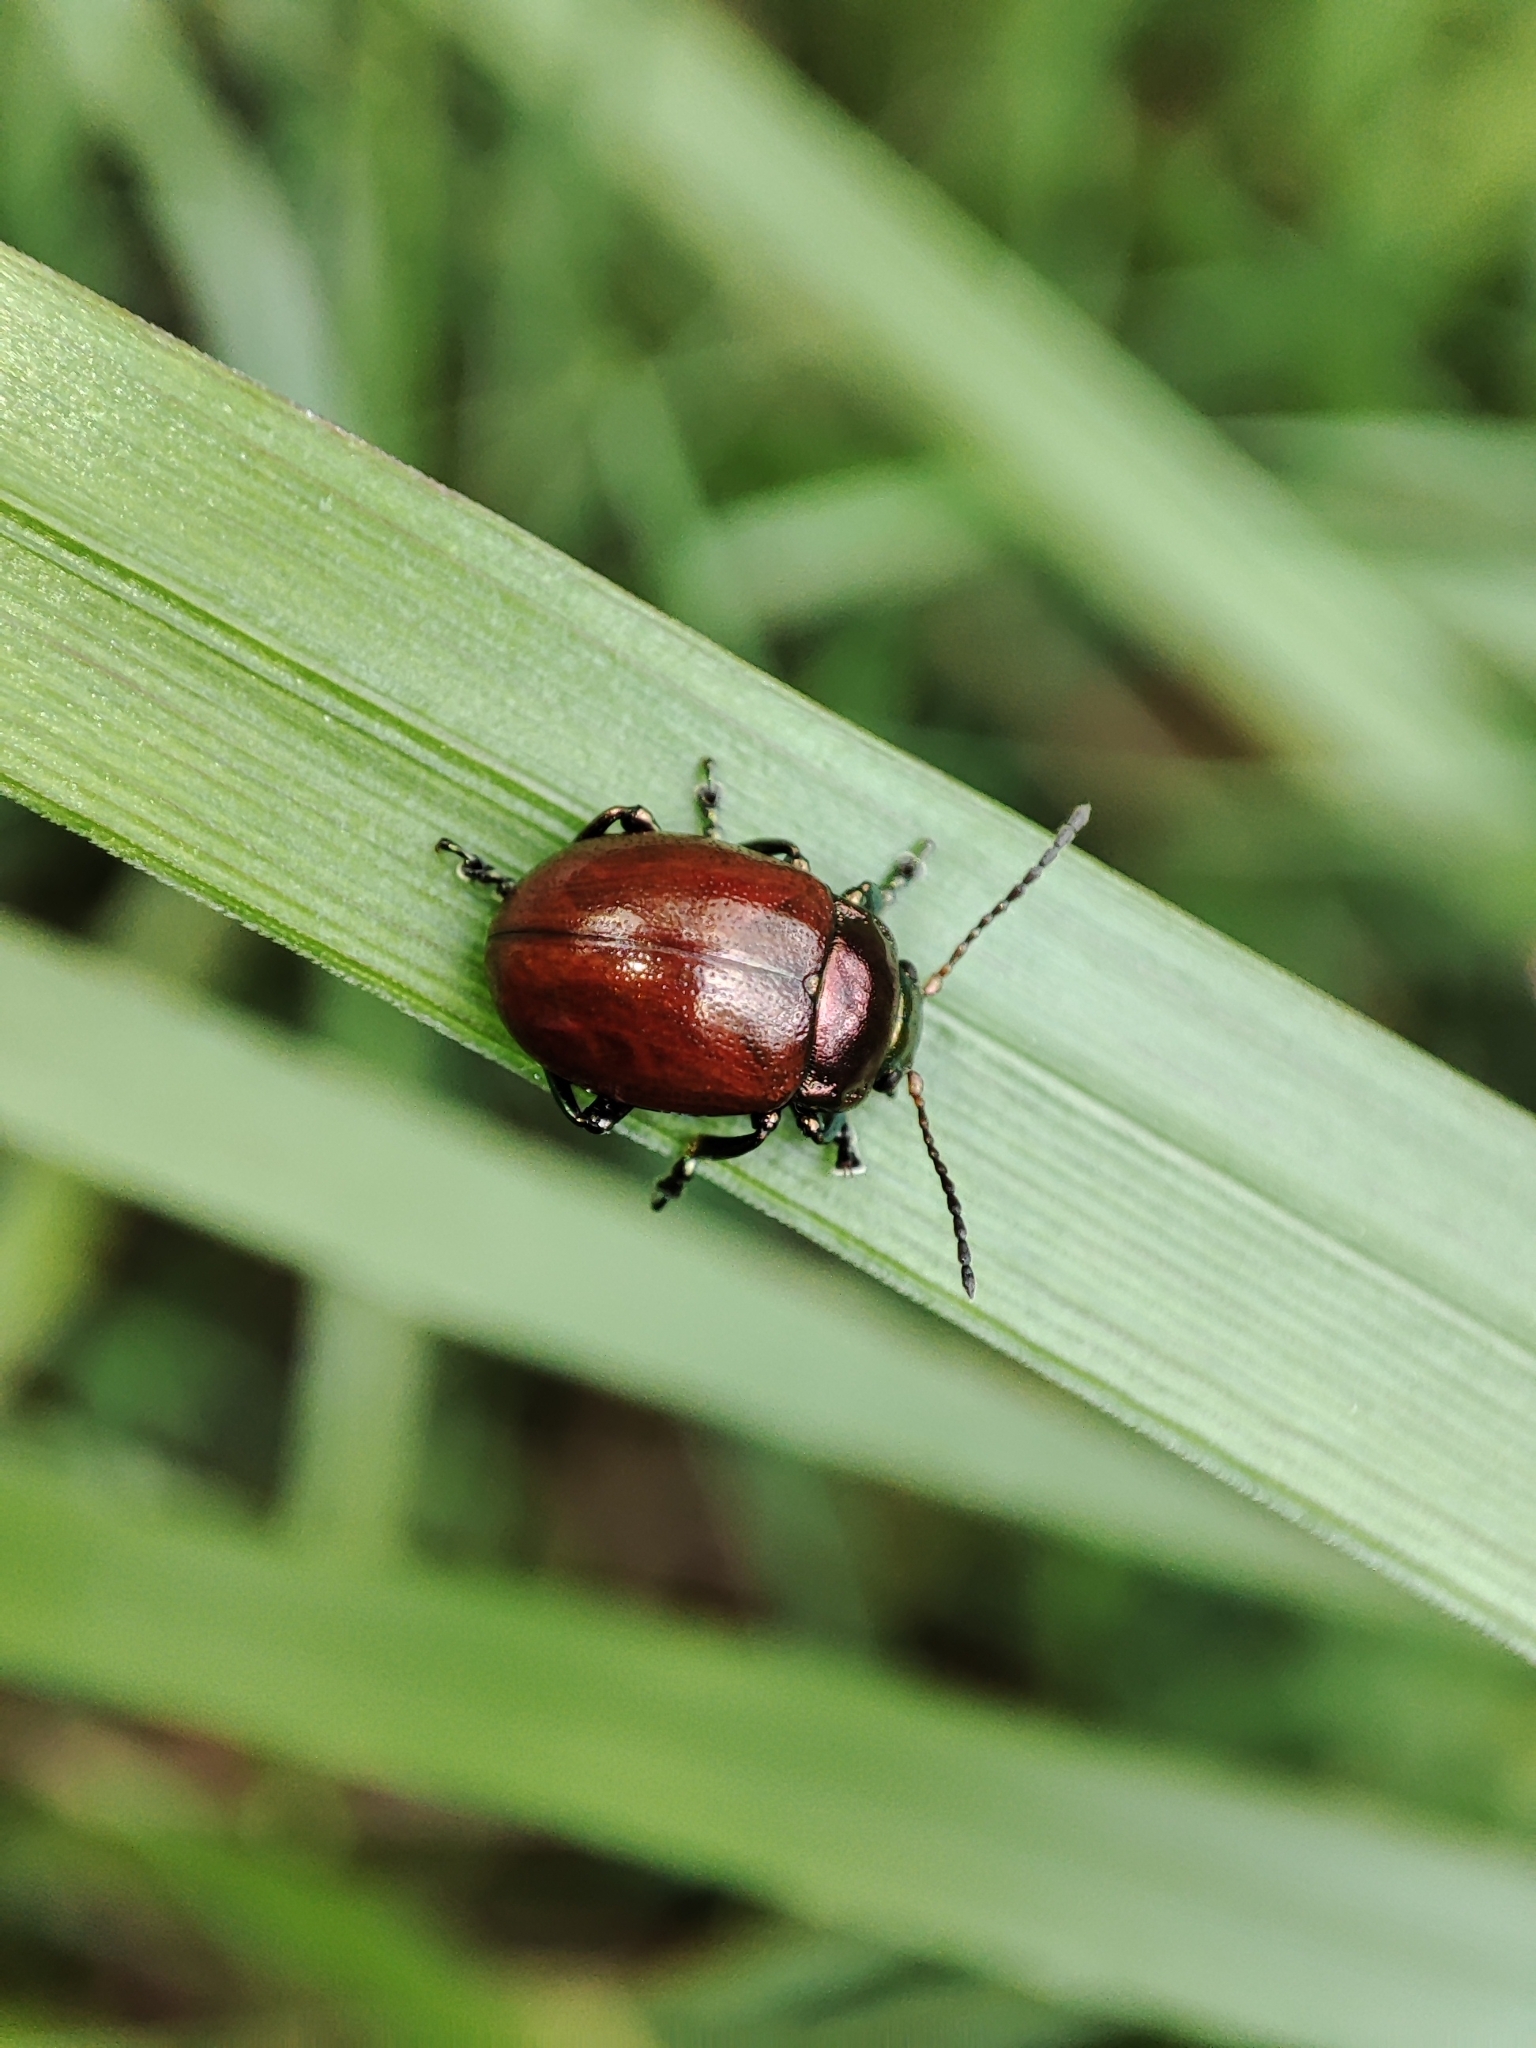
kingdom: Animalia
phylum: Arthropoda
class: Insecta
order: Coleoptera
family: Chrysomelidae
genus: Chrysomela
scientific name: Chrysomela polita
